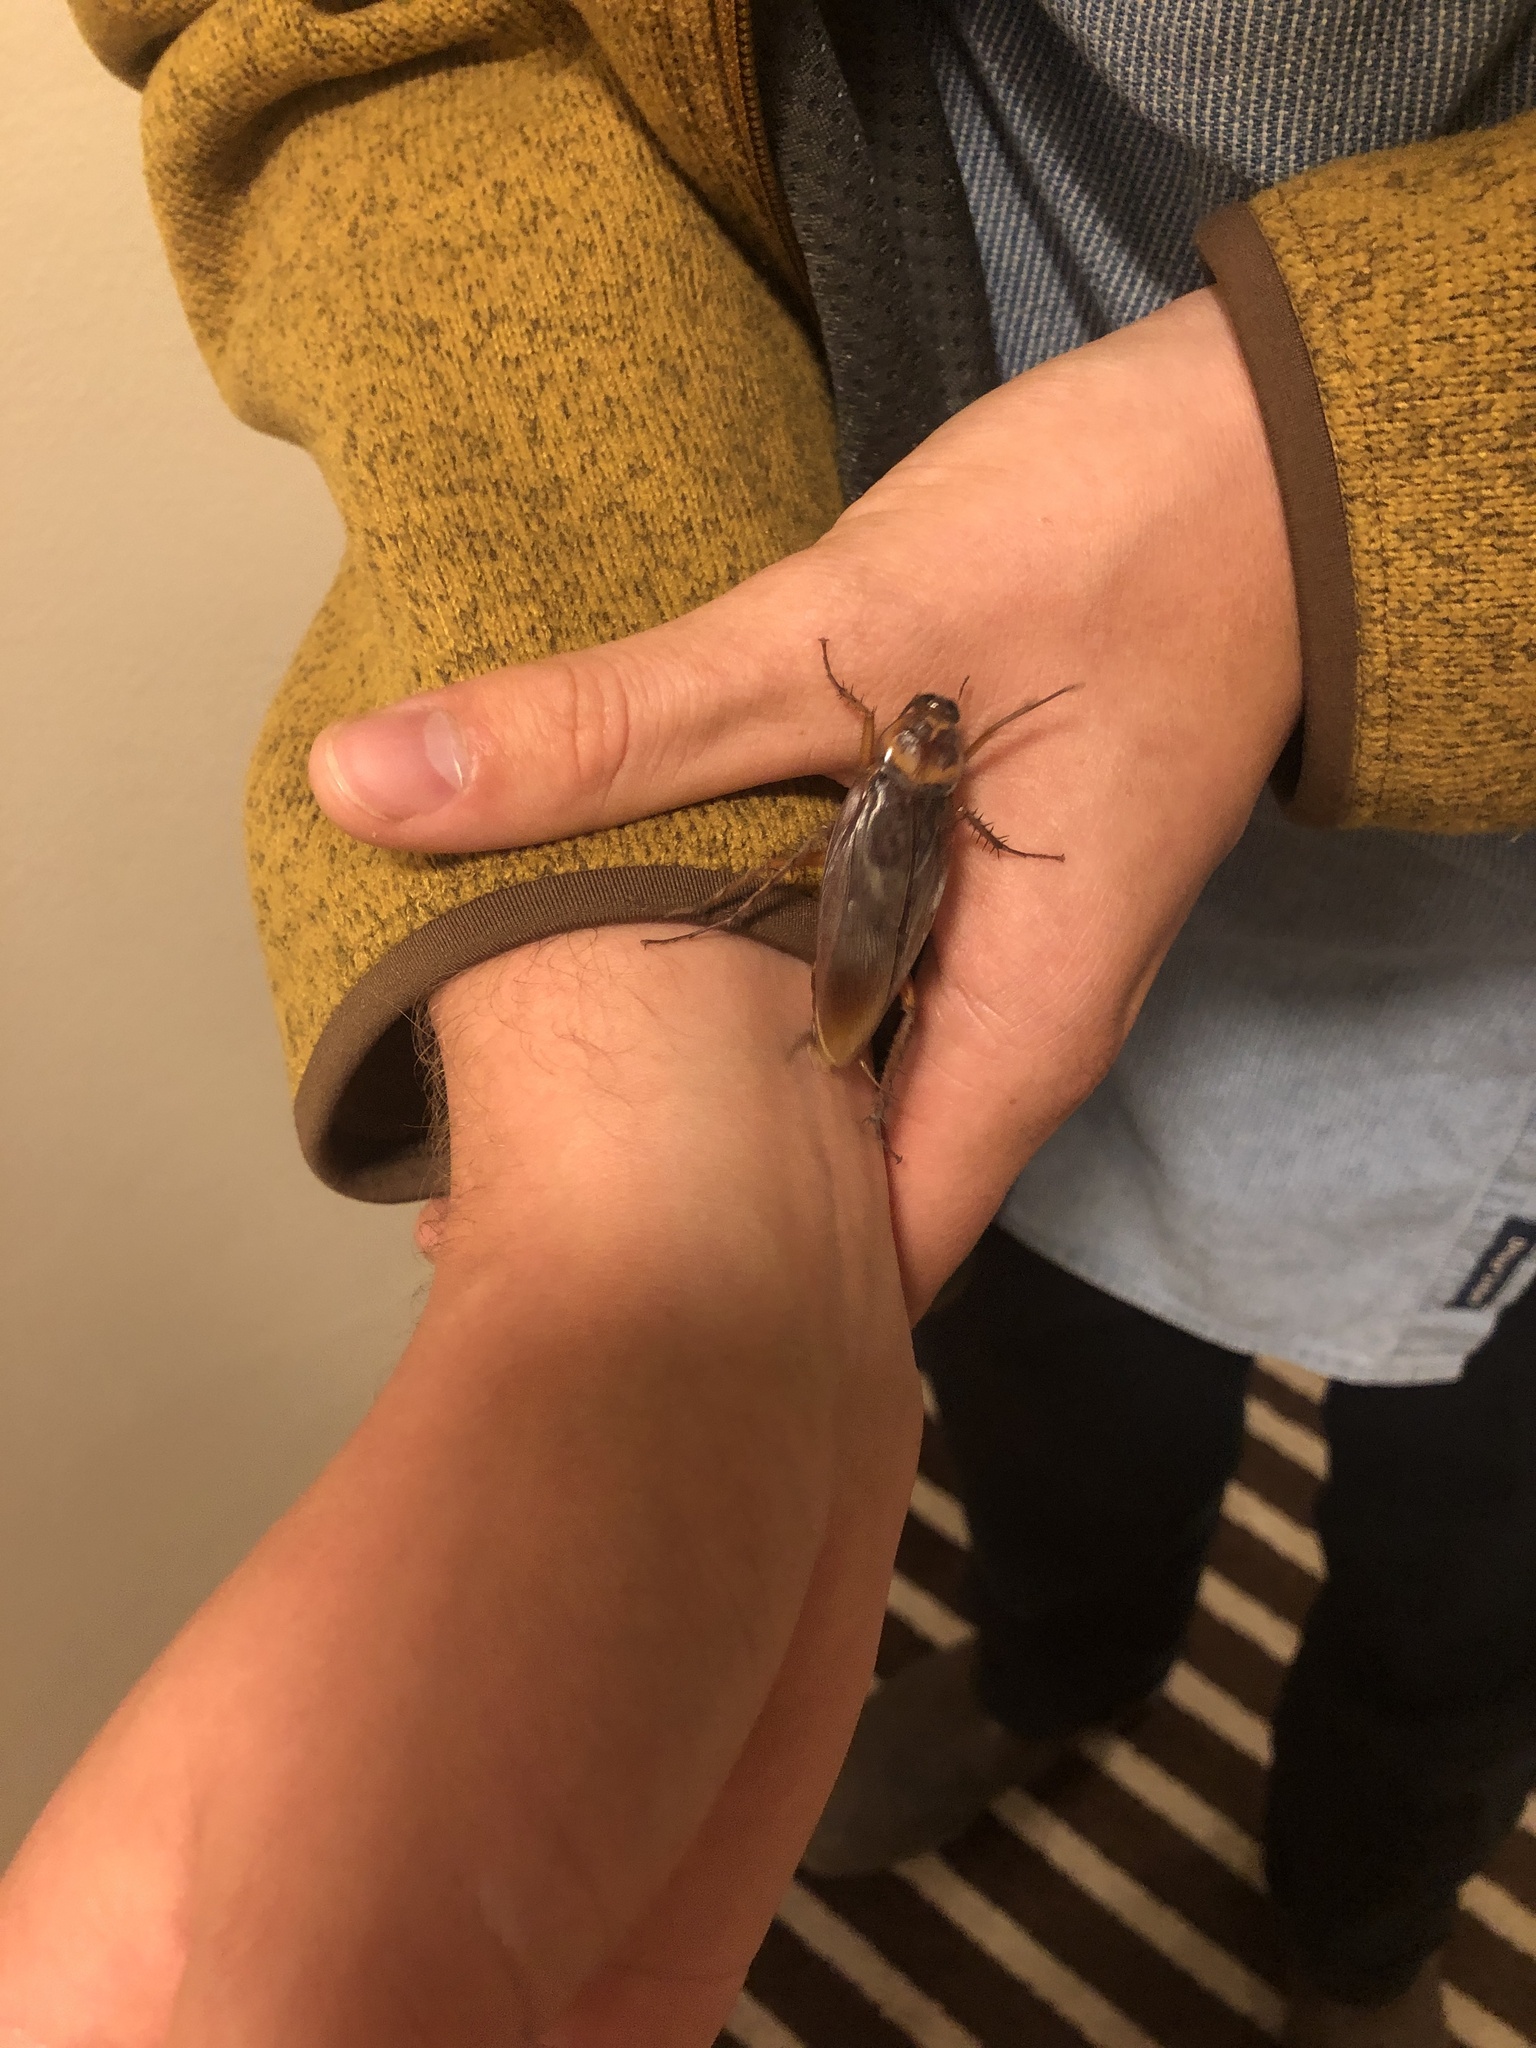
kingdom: Animalia
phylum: Arthropoda
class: Insecta
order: Blattodea
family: Blattidae
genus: Periplaneta
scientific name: Periplaneta americana
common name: American cockroach
